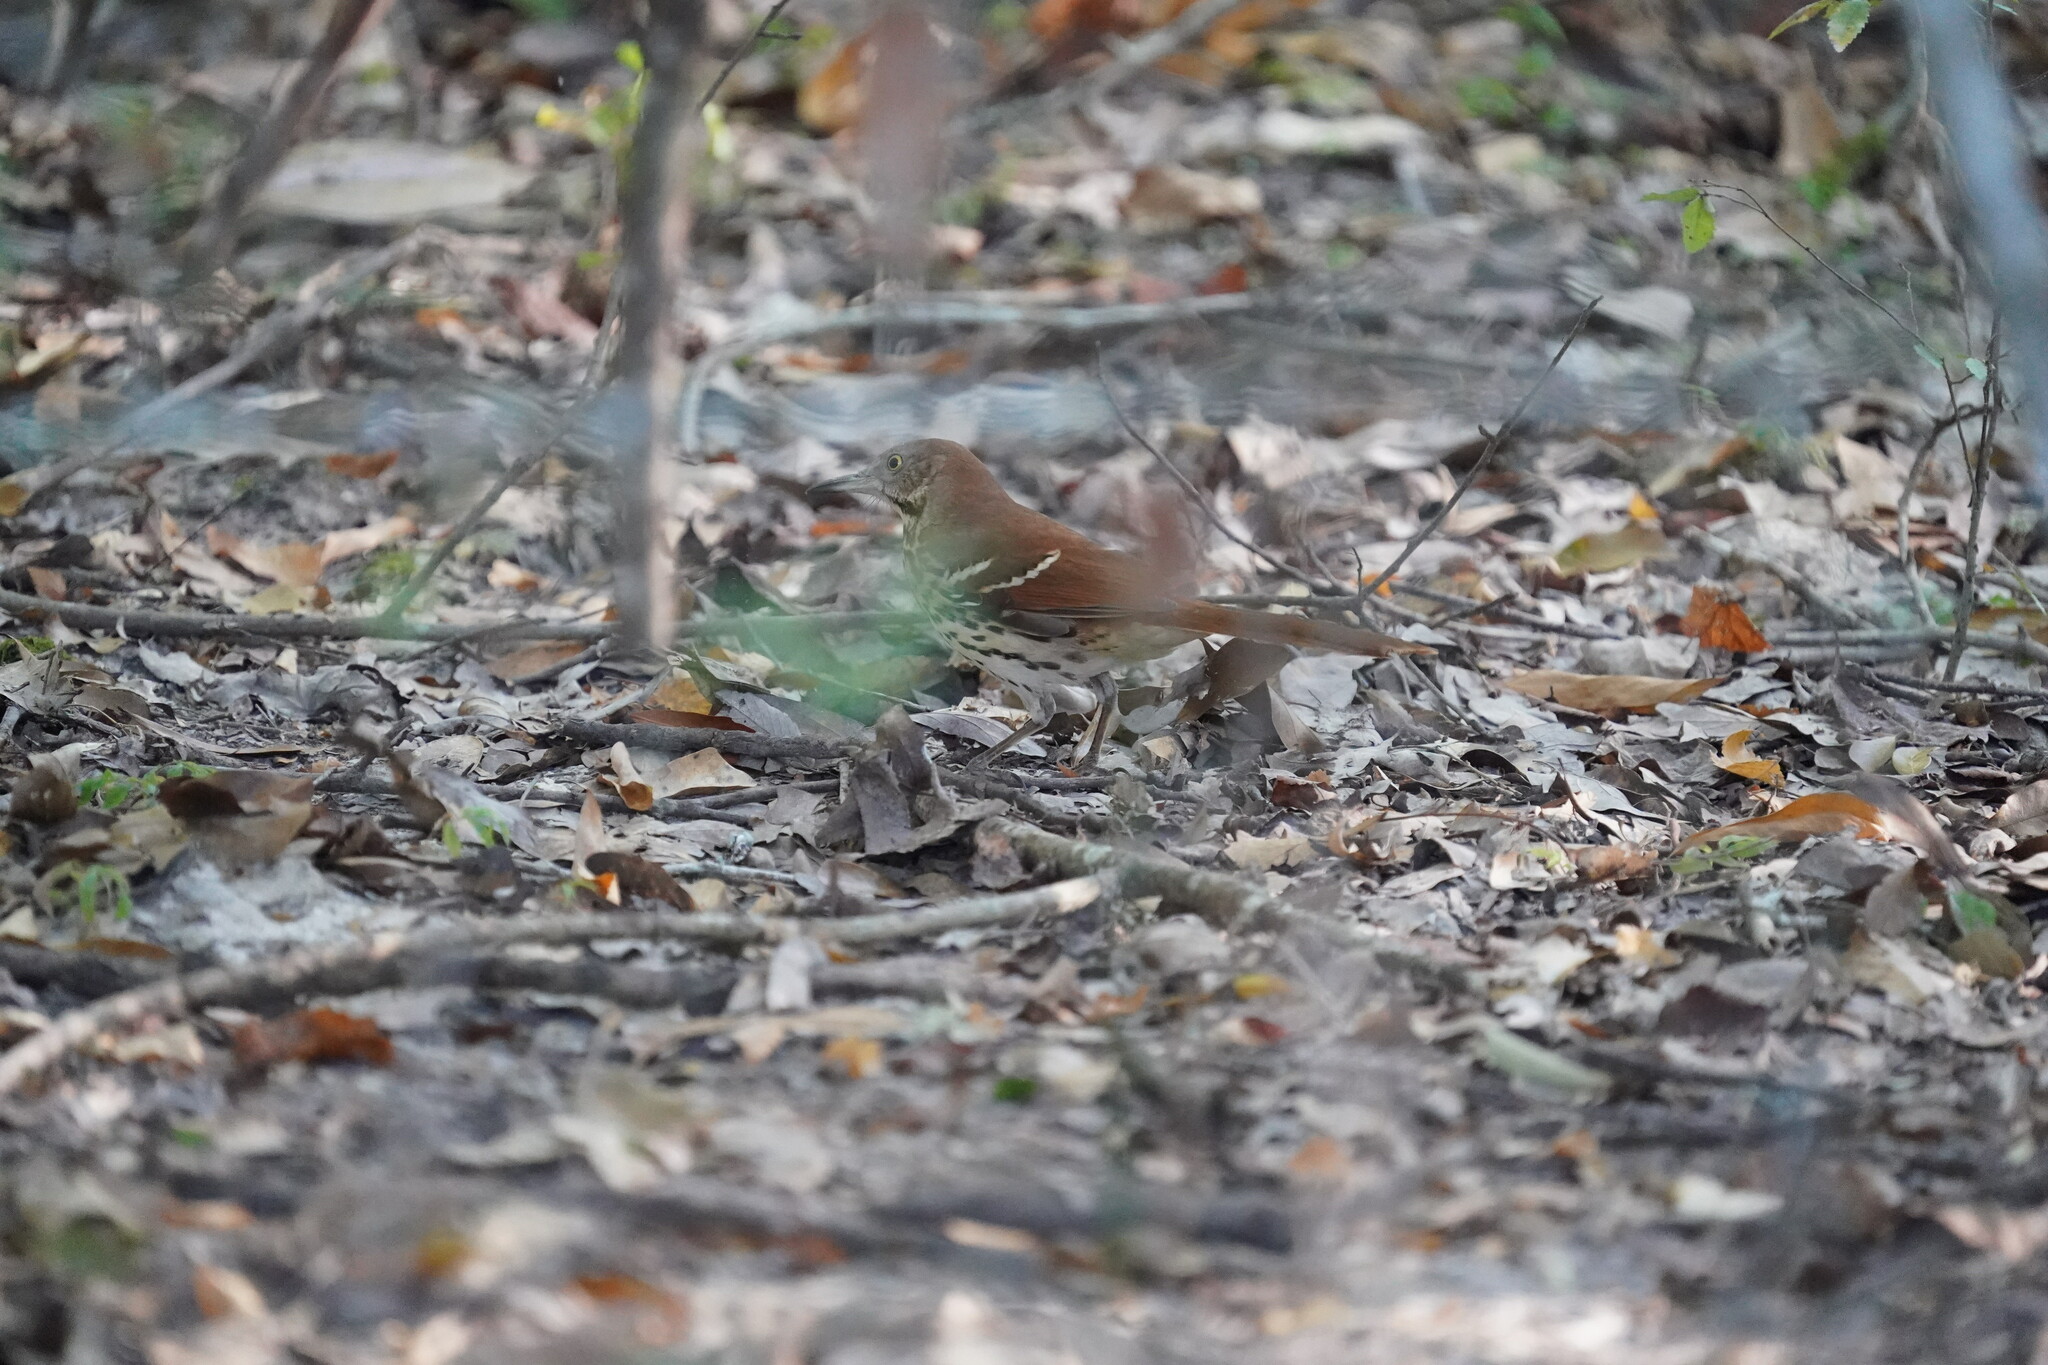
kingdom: Animalia
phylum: Chordata
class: Aves
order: Passeriformes
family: Mimidae
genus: Toxostoma
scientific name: Toxostoma rufum
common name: Brown thrasher
